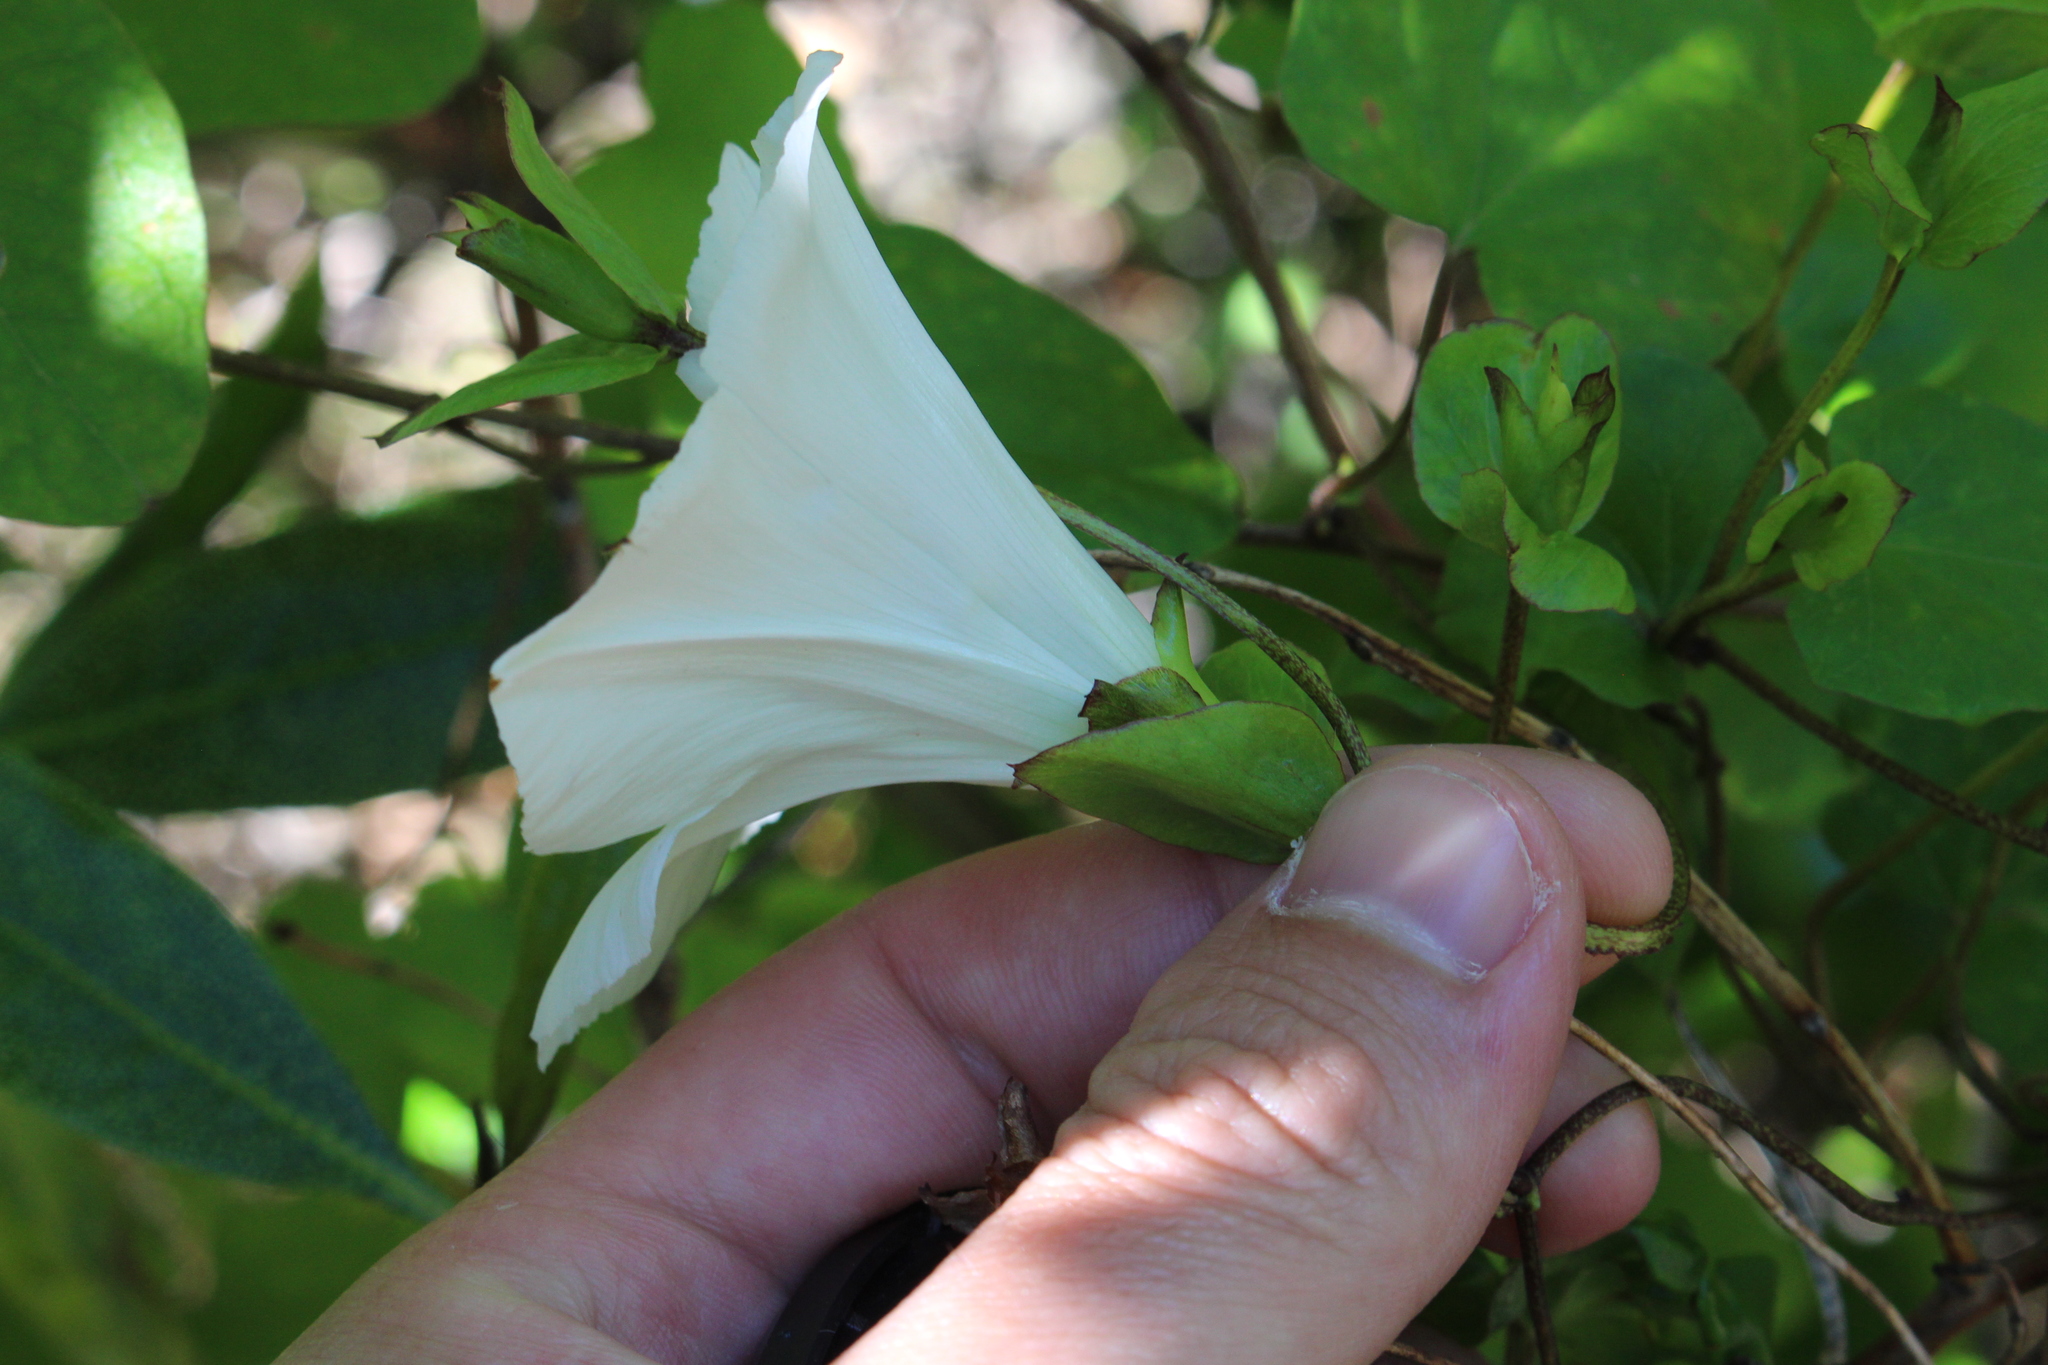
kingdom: Plantae
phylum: Tracheophyta
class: Magnoliopsida
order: Solanales
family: Convolvulaceae
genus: Calystegia
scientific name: Calystegia tuguriorum
